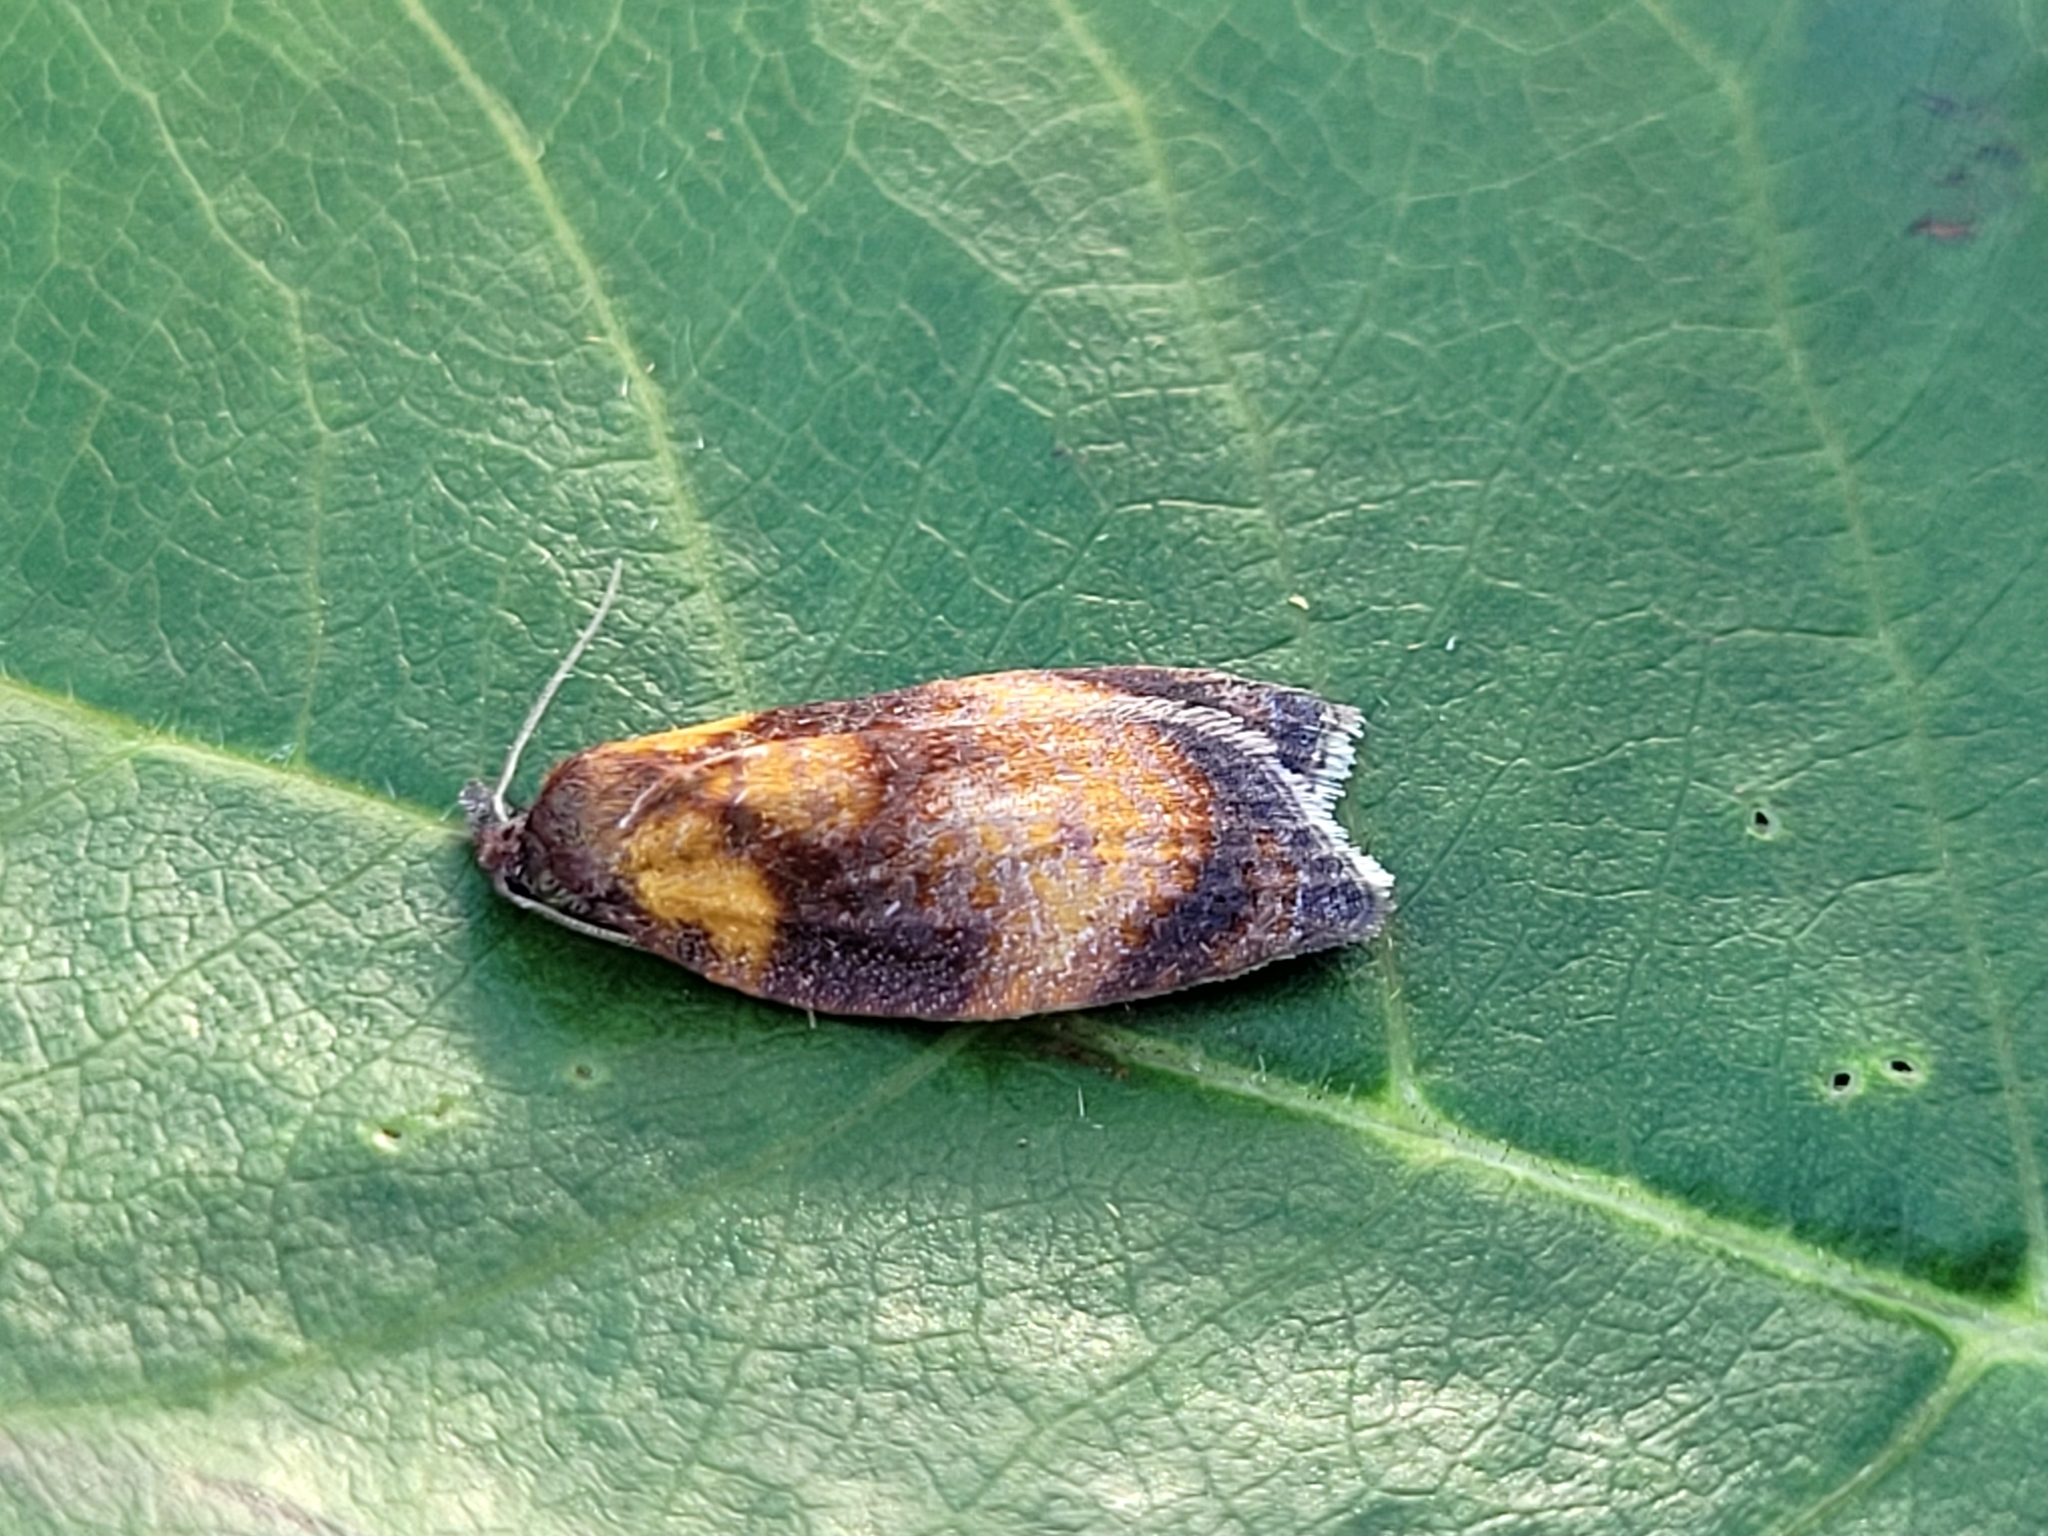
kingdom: Animalia
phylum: Arthropoda
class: Insecta
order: Lepidoptera
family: Tortricidae
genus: Sparganothis
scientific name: Sparganothis flavibasana
